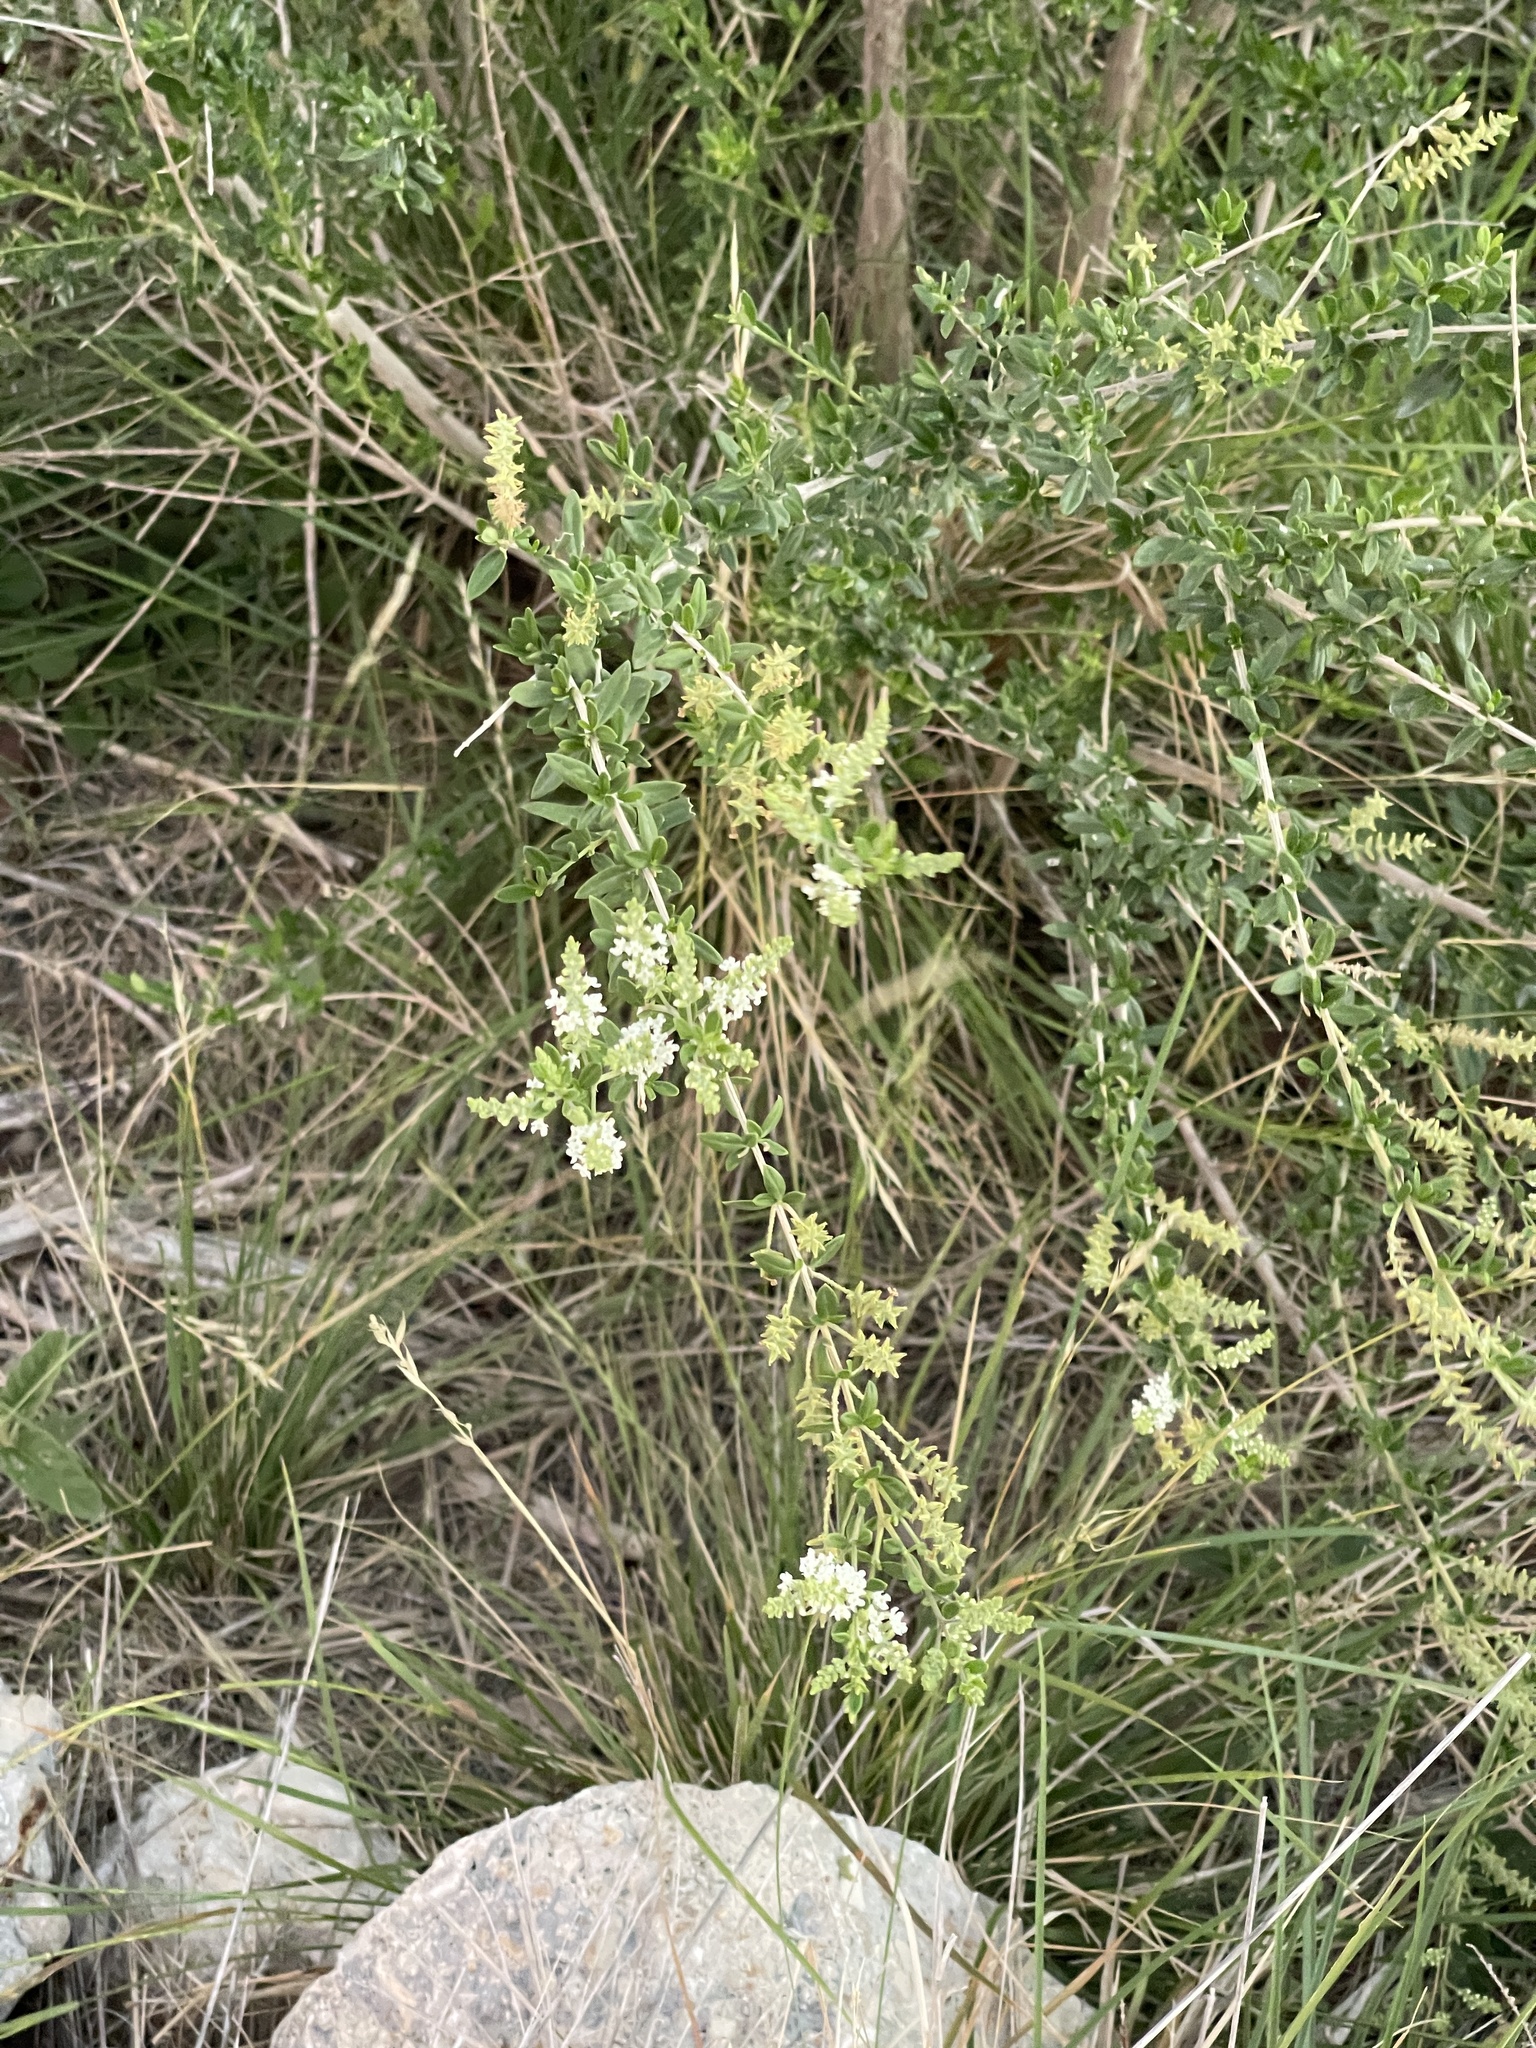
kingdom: Plantae
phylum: Tracheophyta
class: Magnoliopsida
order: Lamiales
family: Verbenaceae
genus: Aloysia
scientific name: Aloysia gratissima
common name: Common bee-brush
